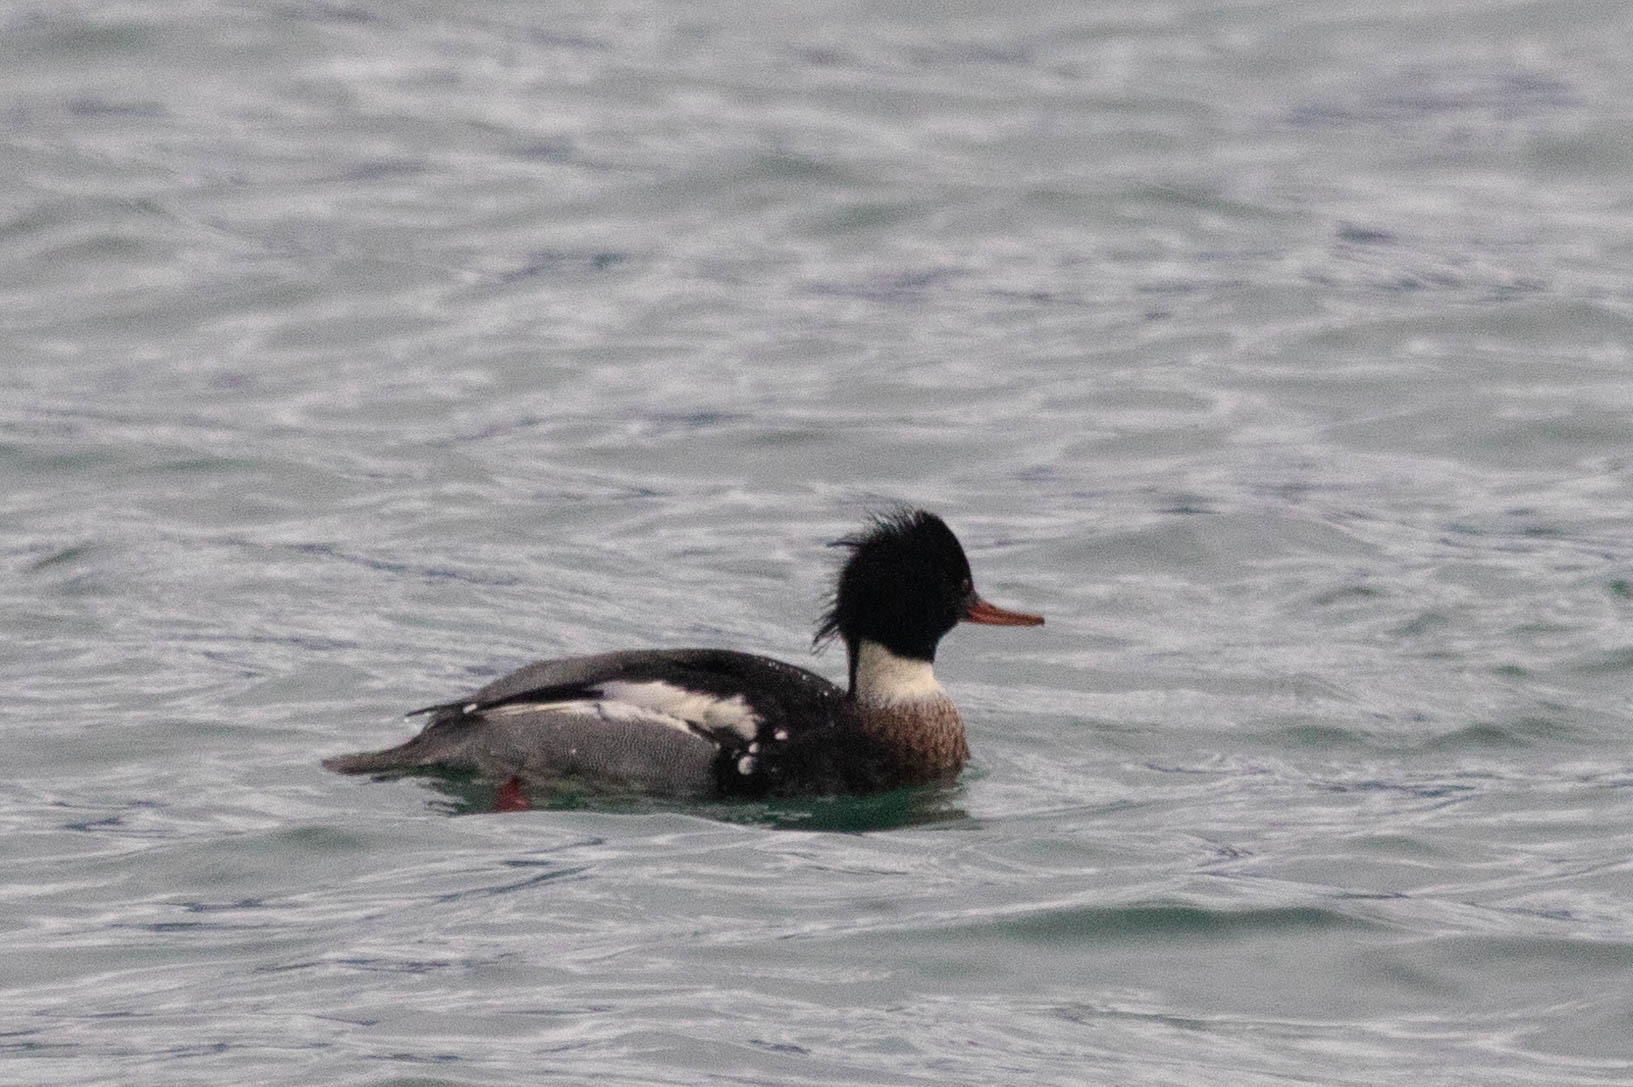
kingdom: Animalia
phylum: Chordata
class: Aves
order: Anseriformes
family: Anatidae
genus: Mergus
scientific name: Mergus serrator
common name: Red-breasted merganser
